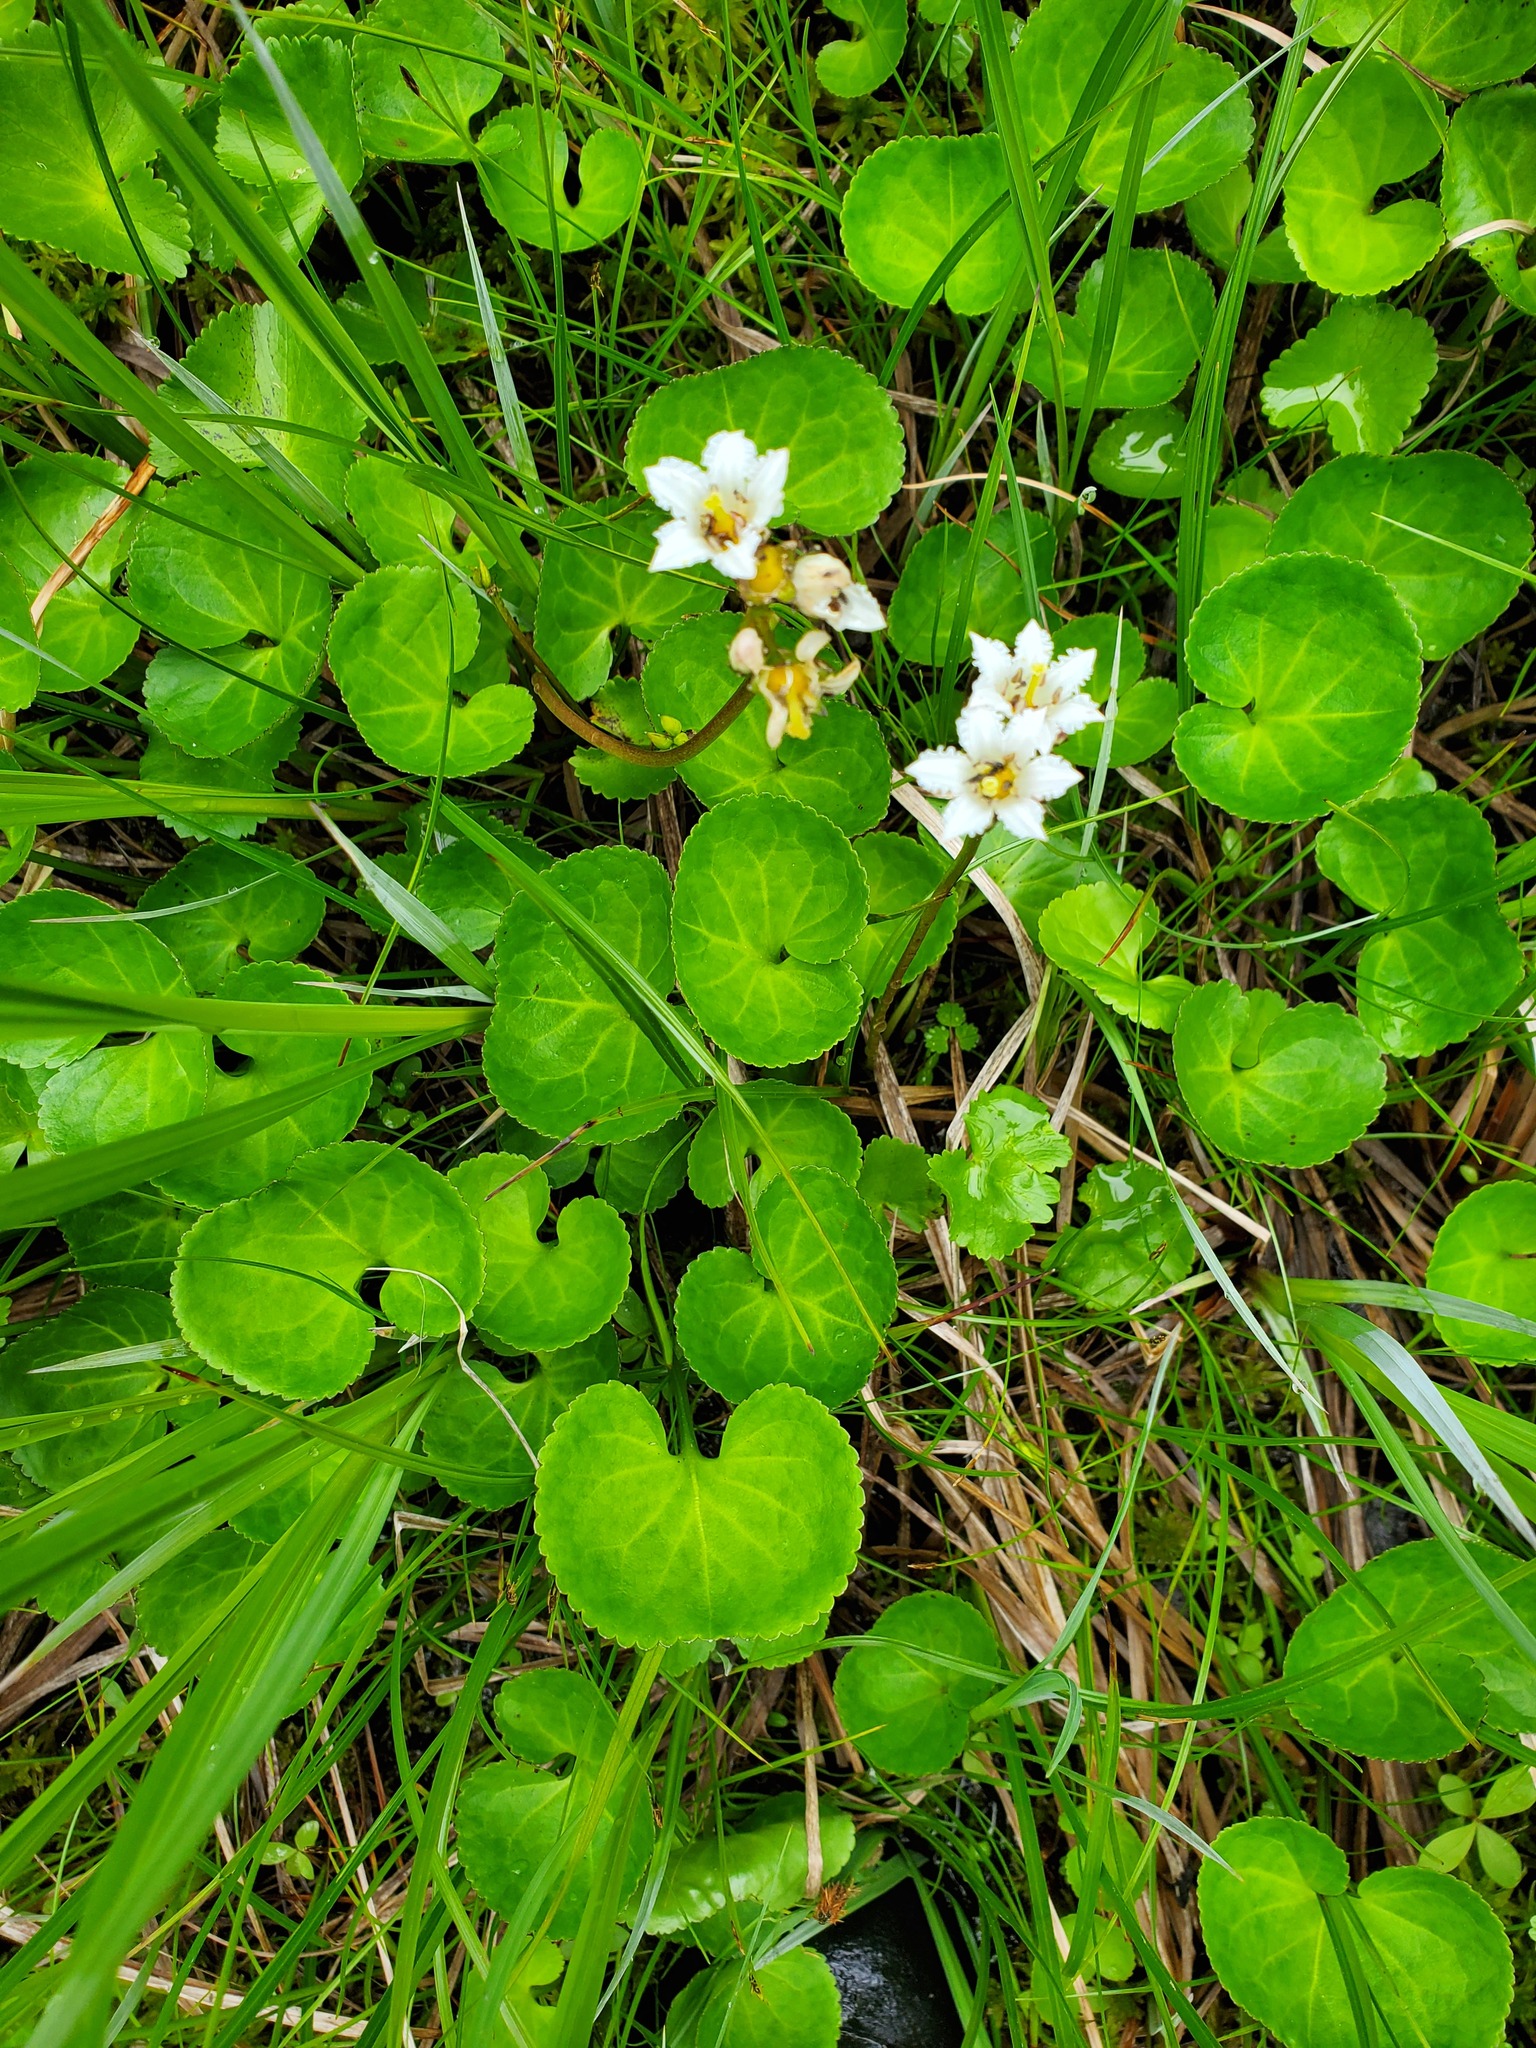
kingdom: Plantae
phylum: Tracheophyta
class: Magnoliopsida
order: Asterales
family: Menyanthaceae
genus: Nephrophyllidium
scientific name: Nephrophyllidium crista-galli
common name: Deer-cabbage
